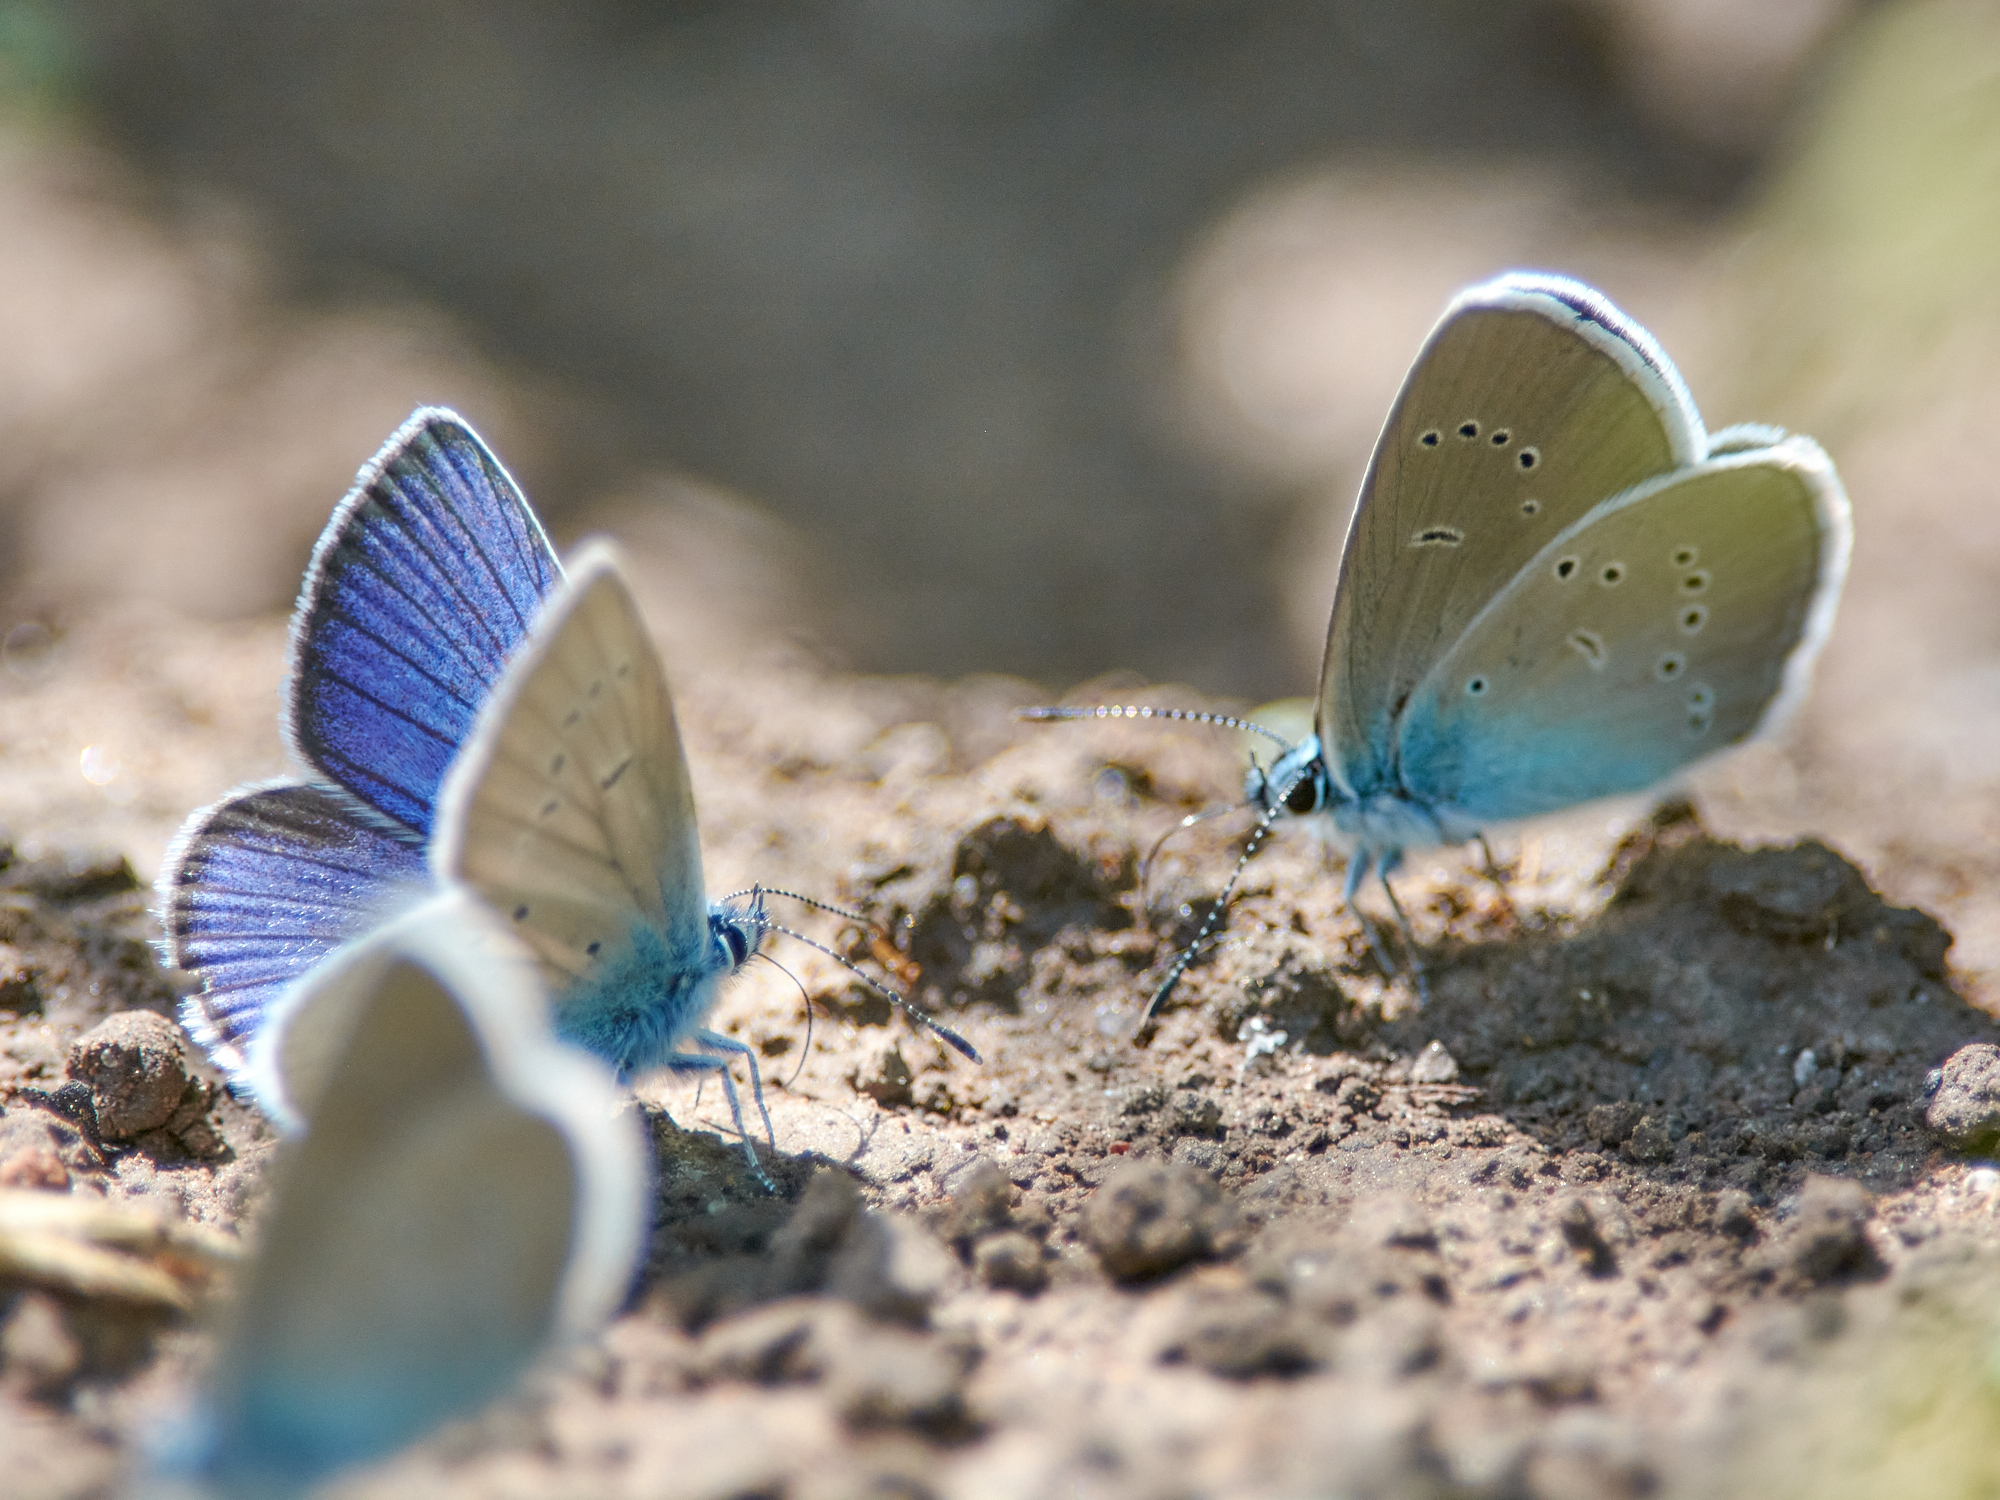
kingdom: Animalia
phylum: Arthropoda
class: Insecta
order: Lepidoptera
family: Lycaenidae
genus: Cyaniris
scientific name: Cyaniris semiargus
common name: Mazarine blue
